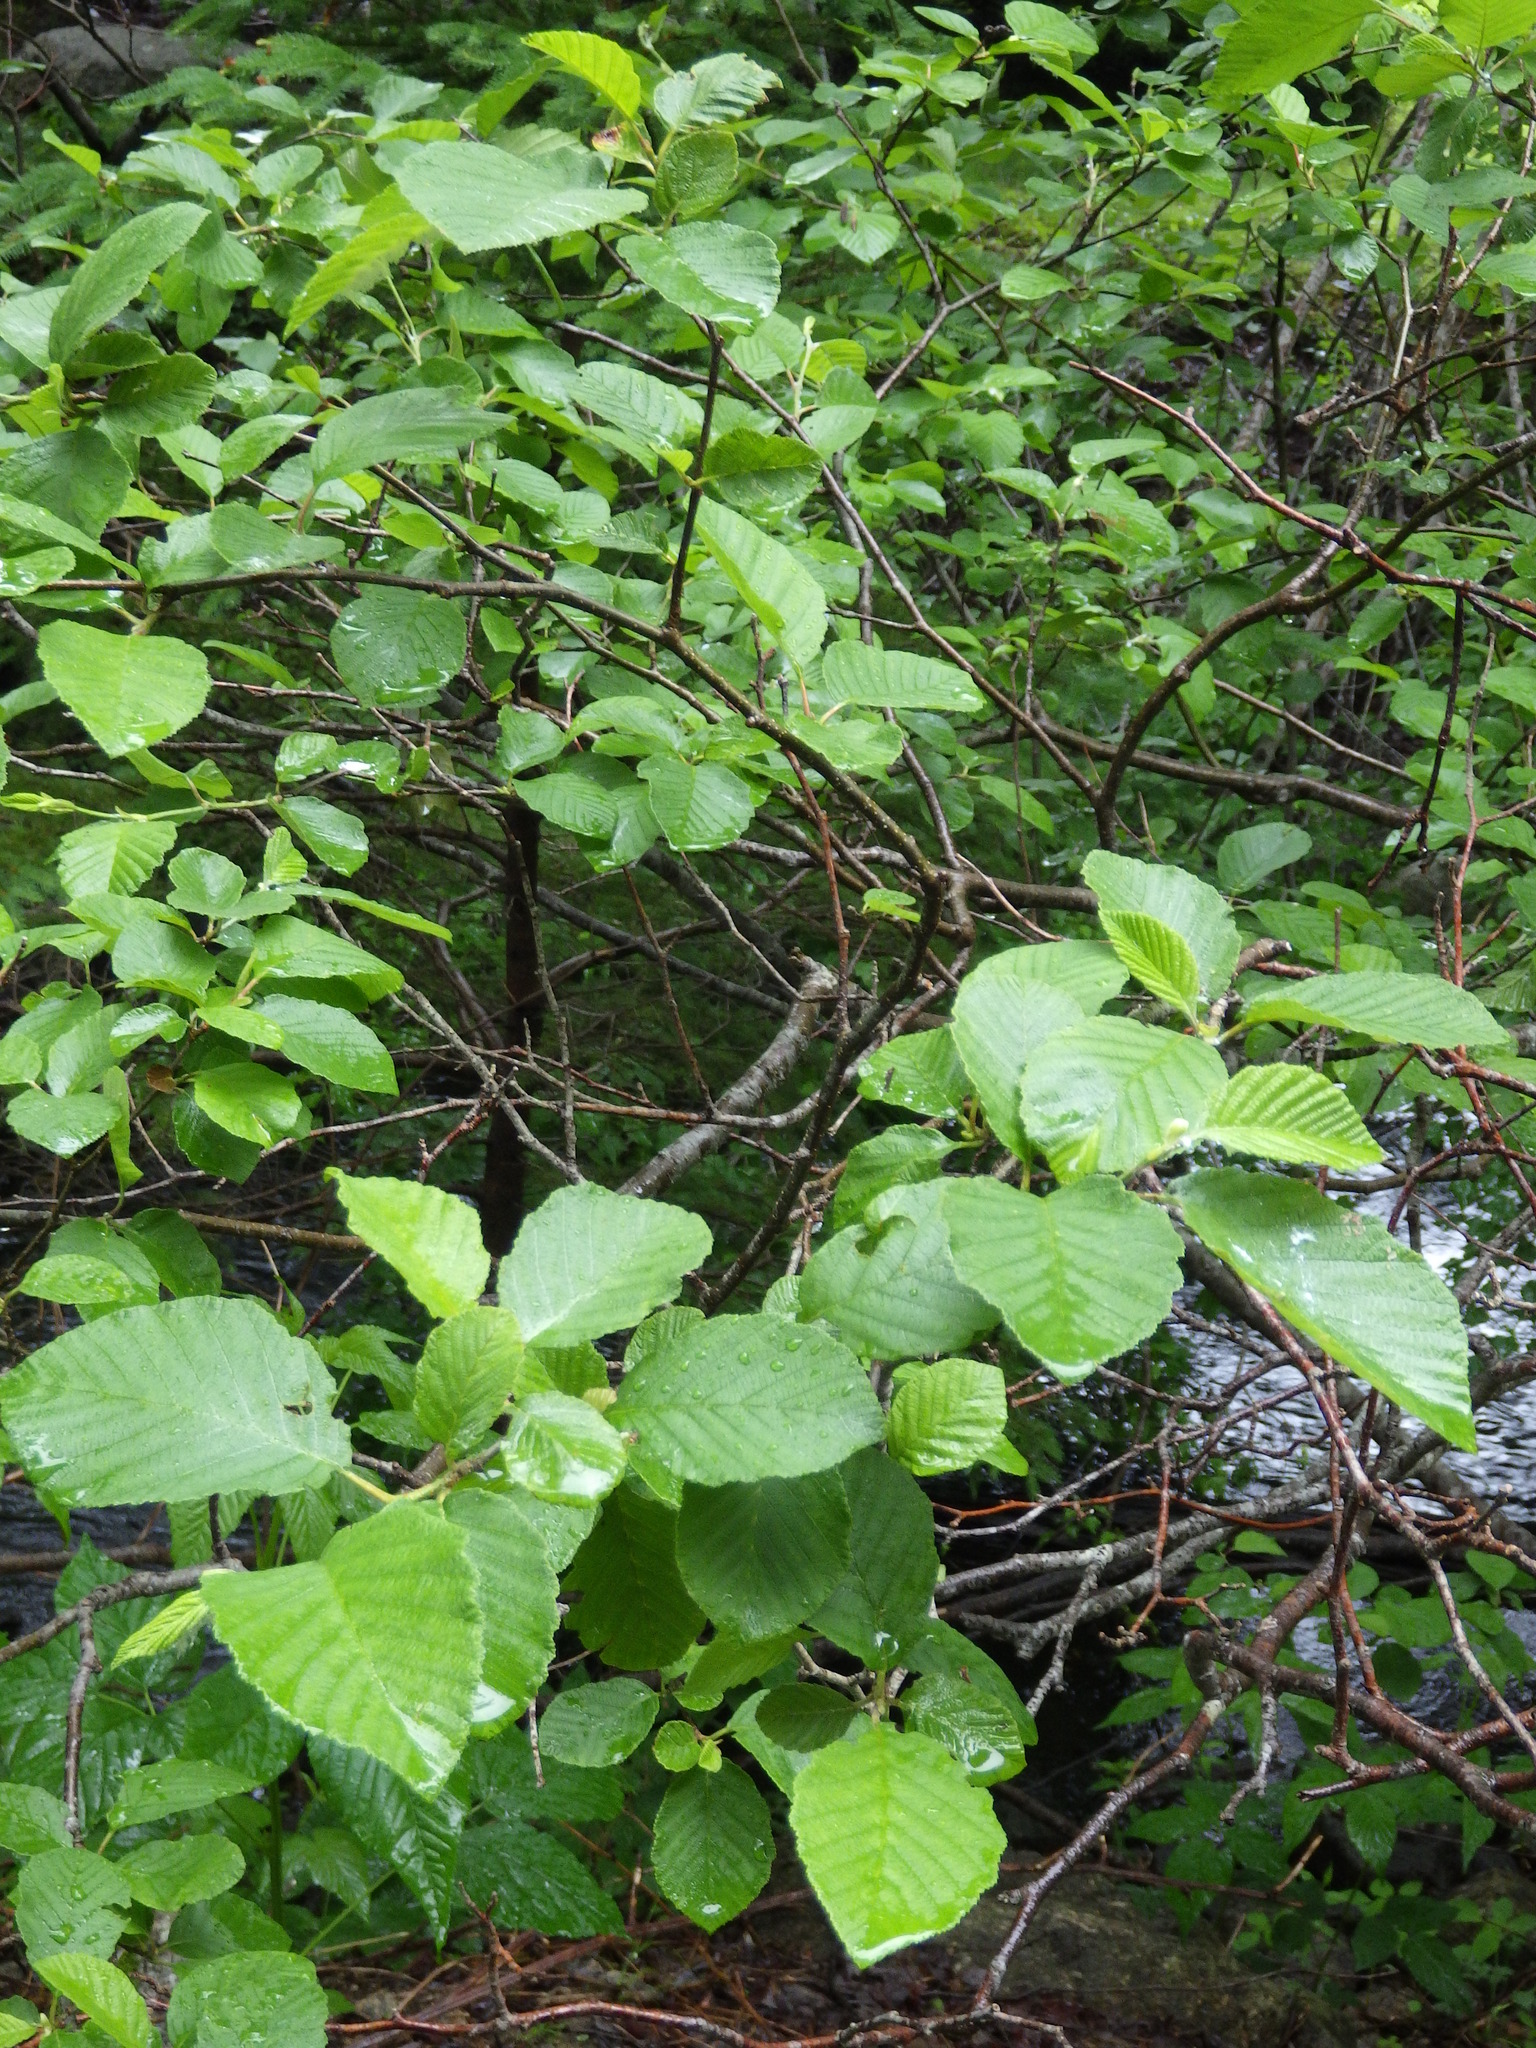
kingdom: Plantae
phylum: Tracheophyta
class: Magnoliopsida
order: Fagales
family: Betulaceae
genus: Alnus
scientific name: Alnus incana
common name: Grey alder
